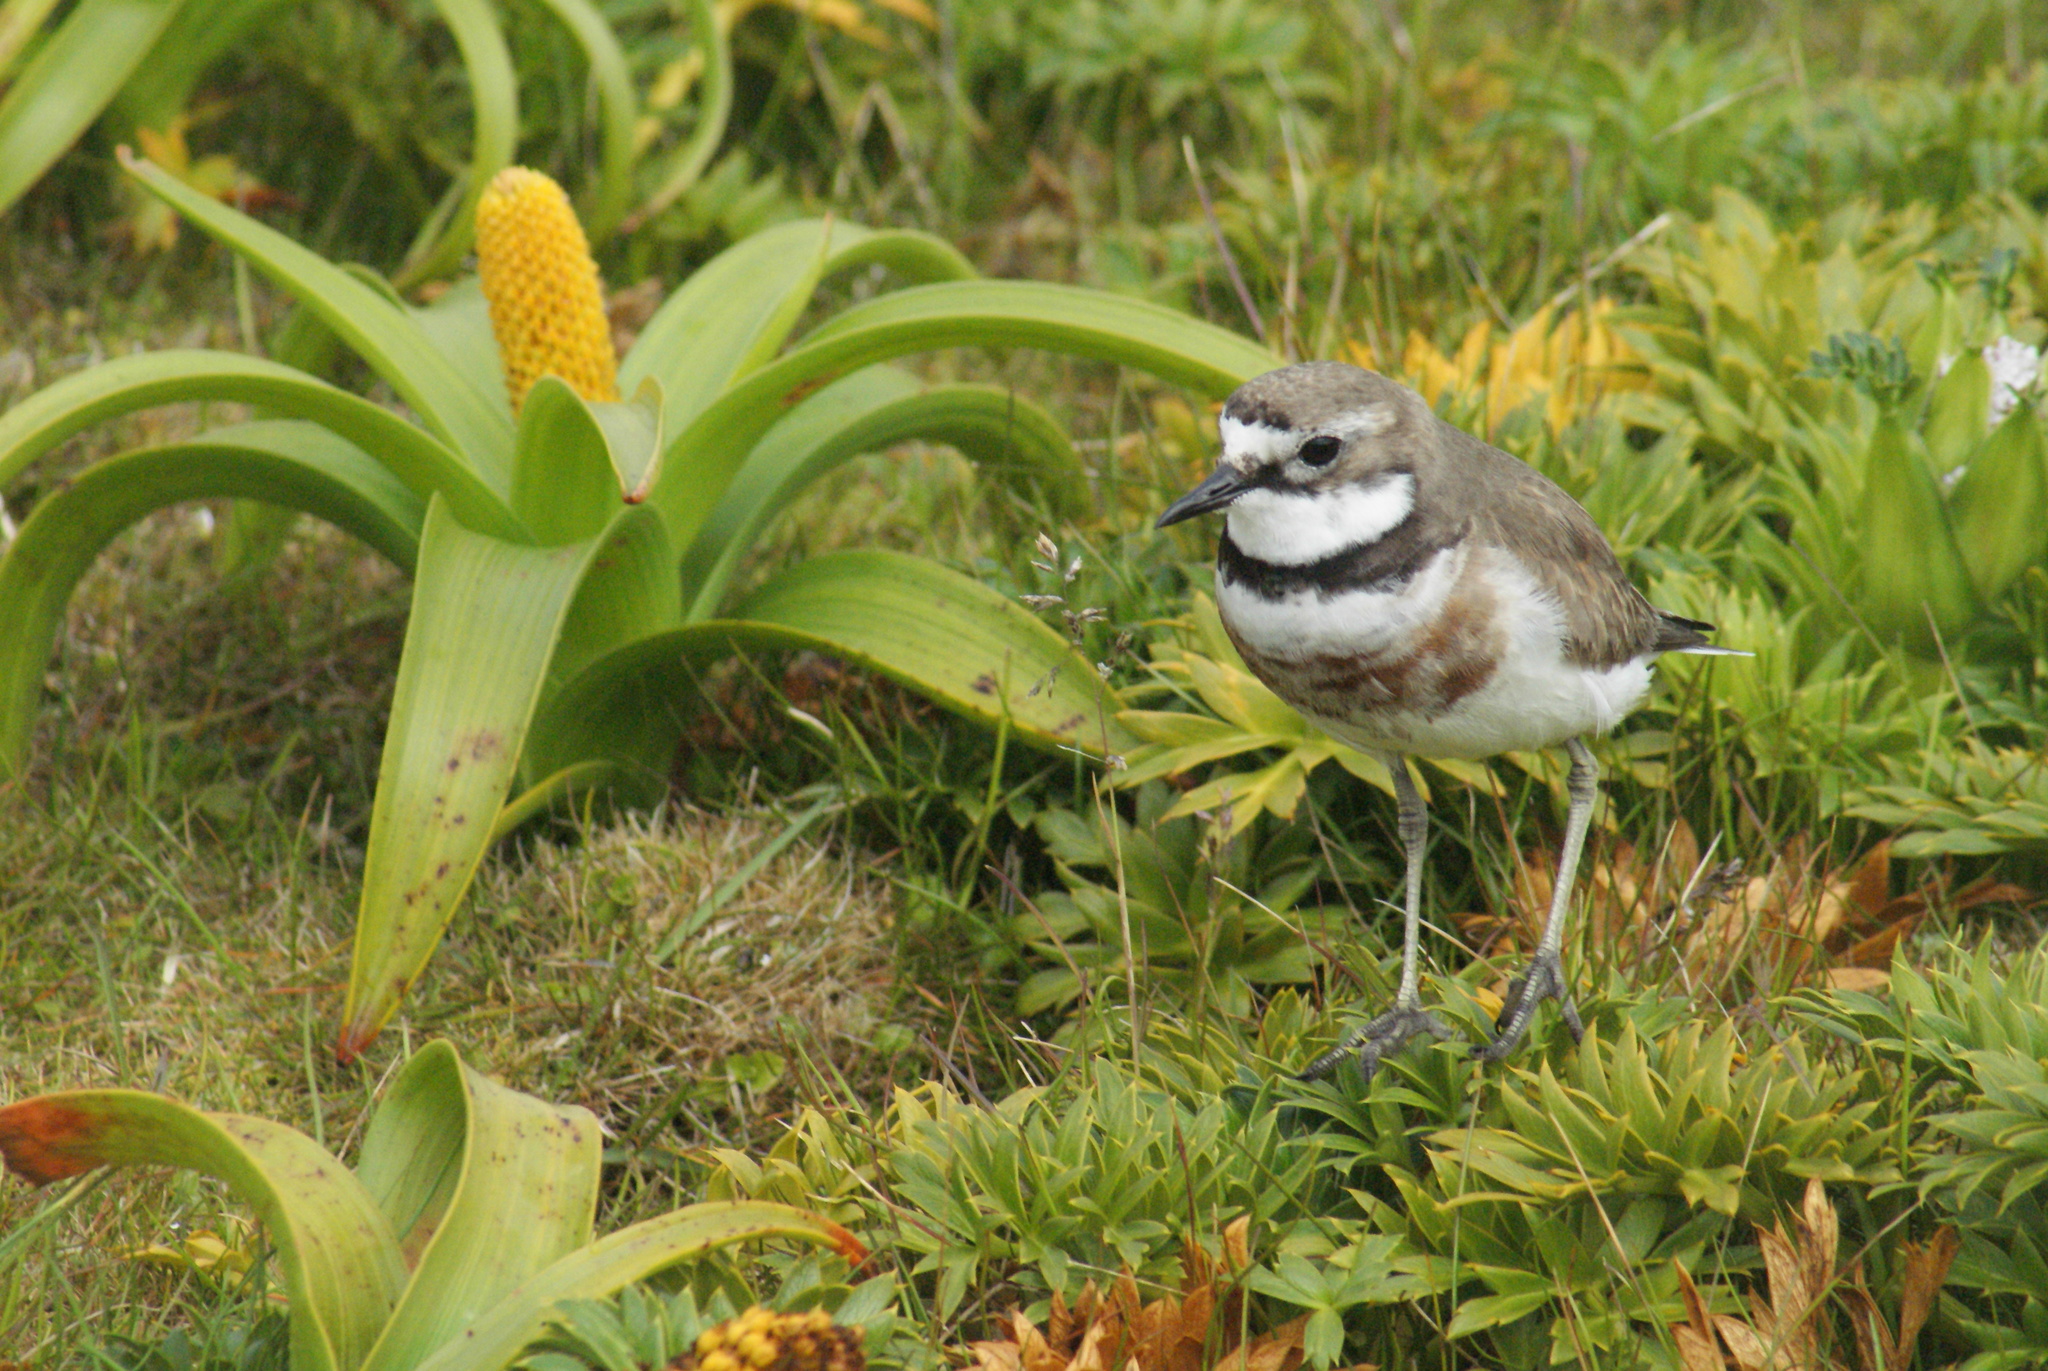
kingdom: Animalia
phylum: Chordata
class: Aves
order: Charadriiformes
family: Charadriidae
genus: Anarhynchus
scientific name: Anarhynchus
